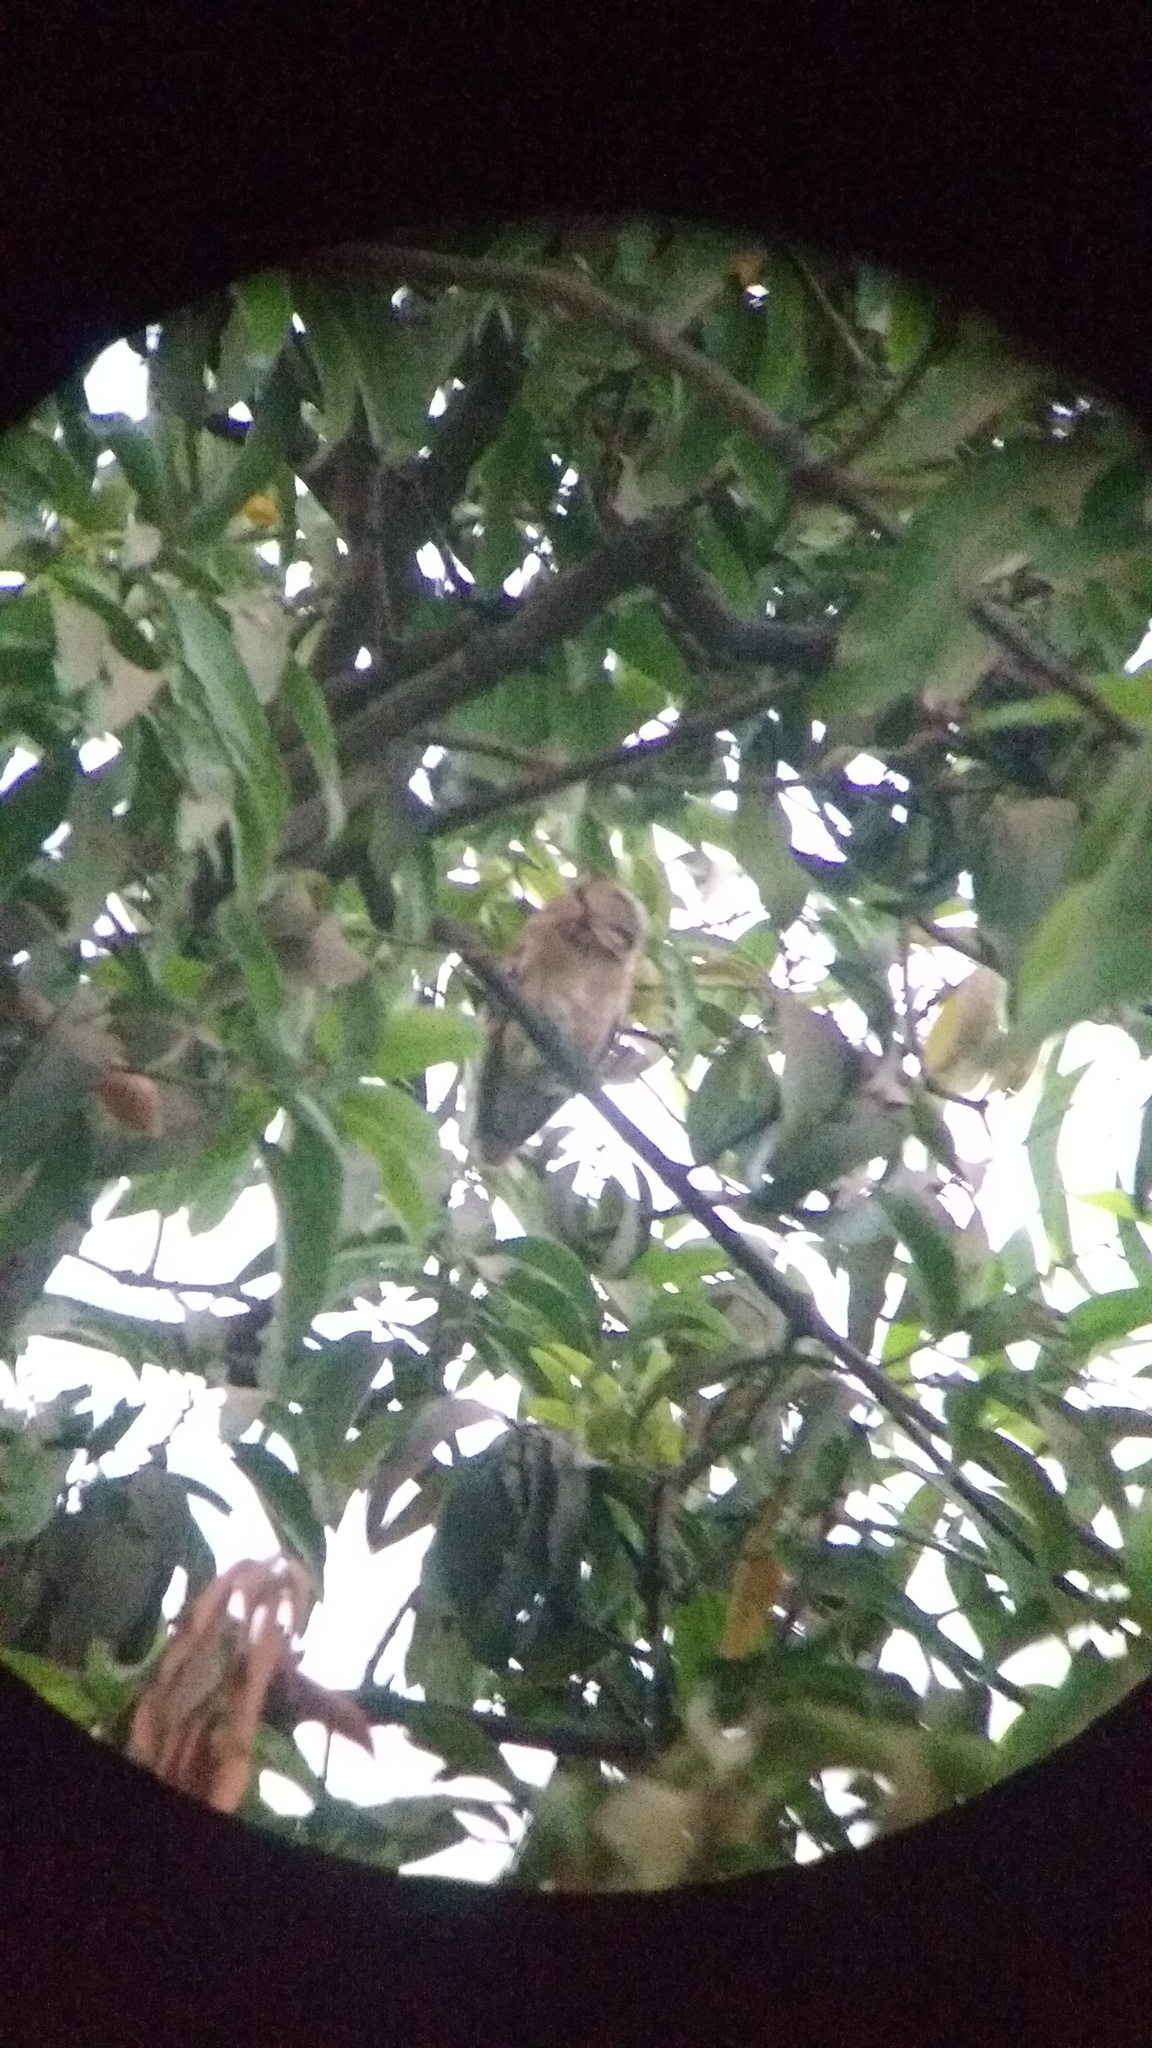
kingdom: Animalia
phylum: Chordata
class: Aves
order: Strigiformes
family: Strigidae
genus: Otus
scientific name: Otus bakkamoena
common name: Indian scops owl
